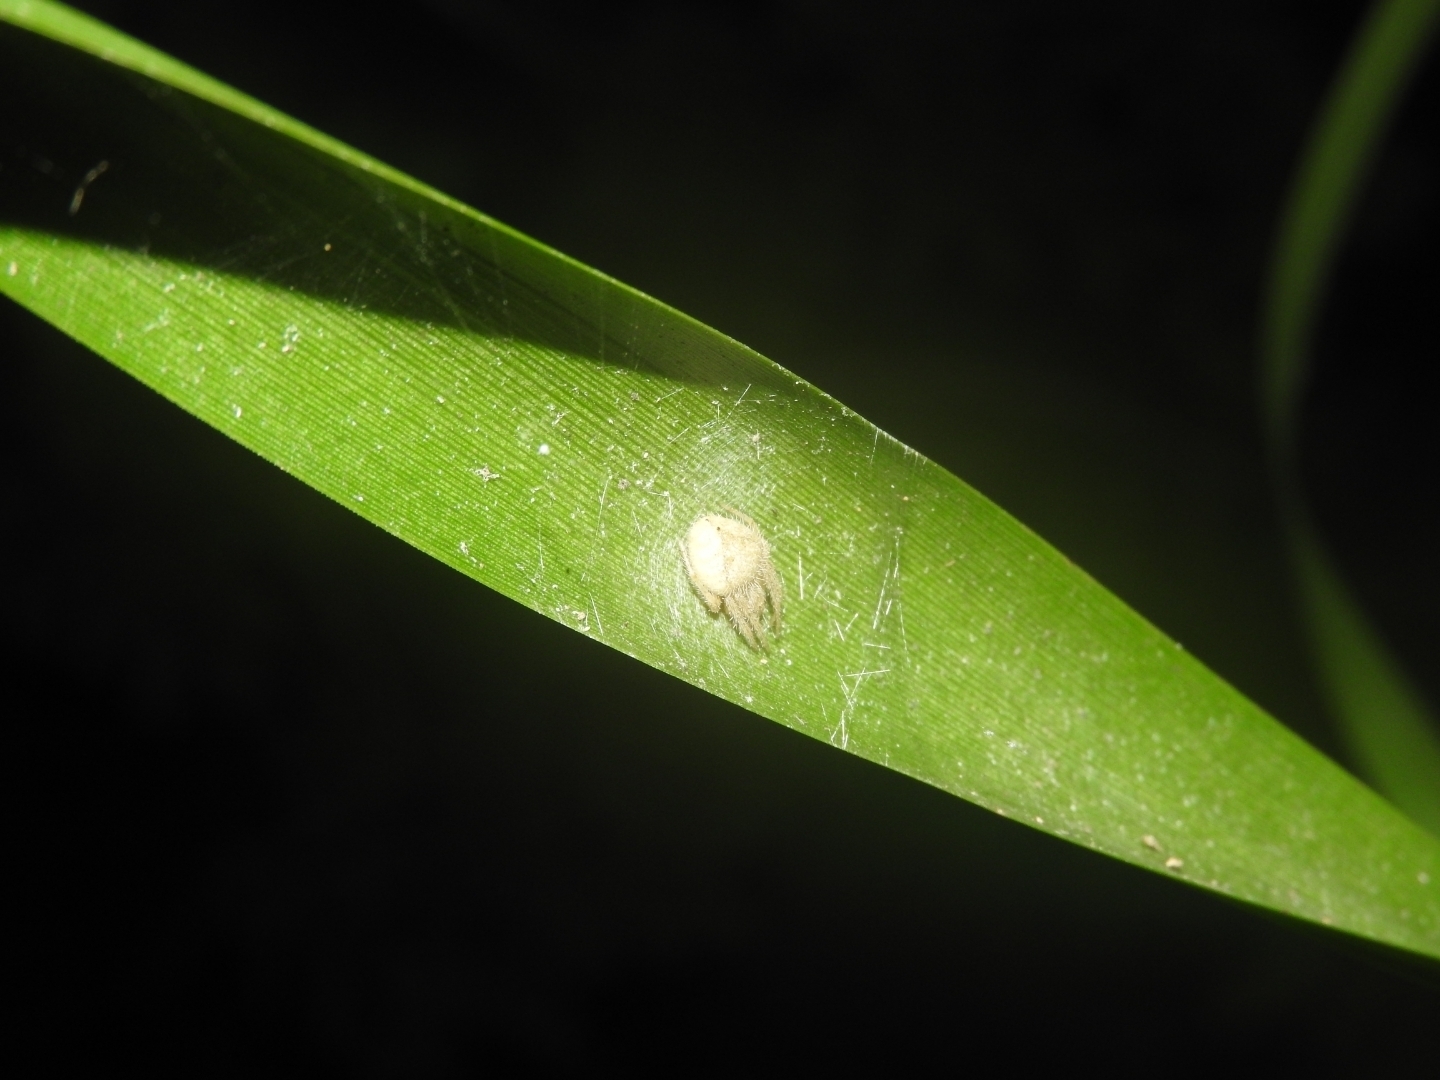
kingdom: Animalia
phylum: Arthropoda
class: Arachnida
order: Araneae
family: Araneidae
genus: Eriophora
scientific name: Eriophora edax
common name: Orb weavers
